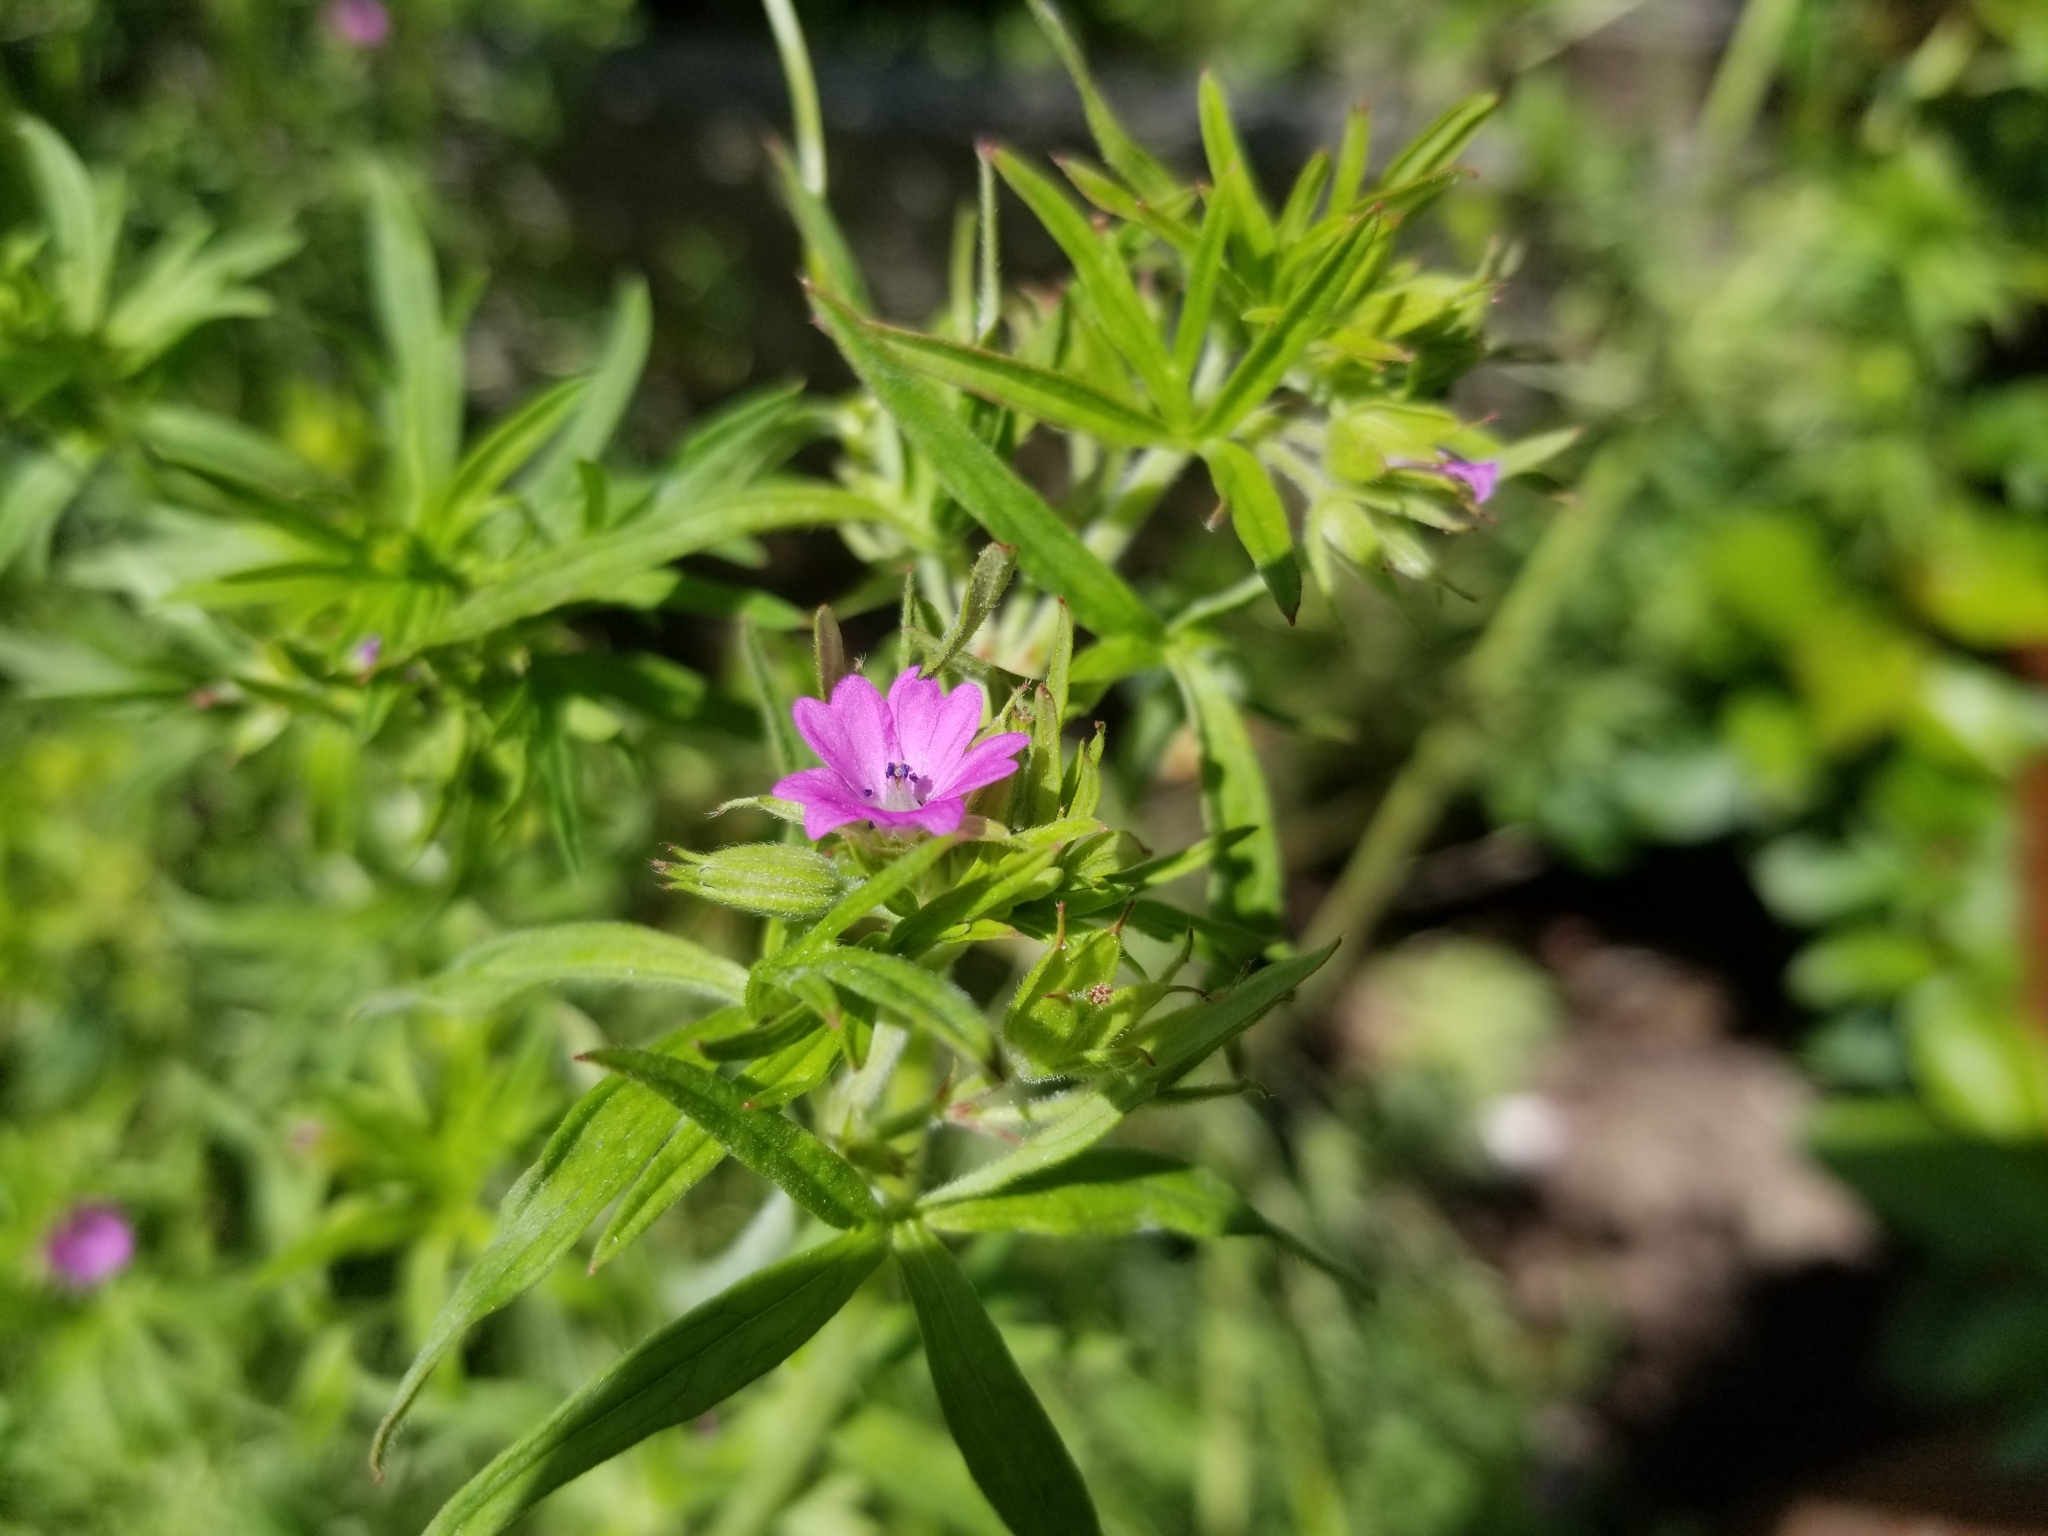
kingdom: Plantae
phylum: Tracheophyta
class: Magnoliopsida
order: Geraniales
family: Geraniaceae
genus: Geranium
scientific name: Geranium dissectum
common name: Cut-leaved crane's-bill
